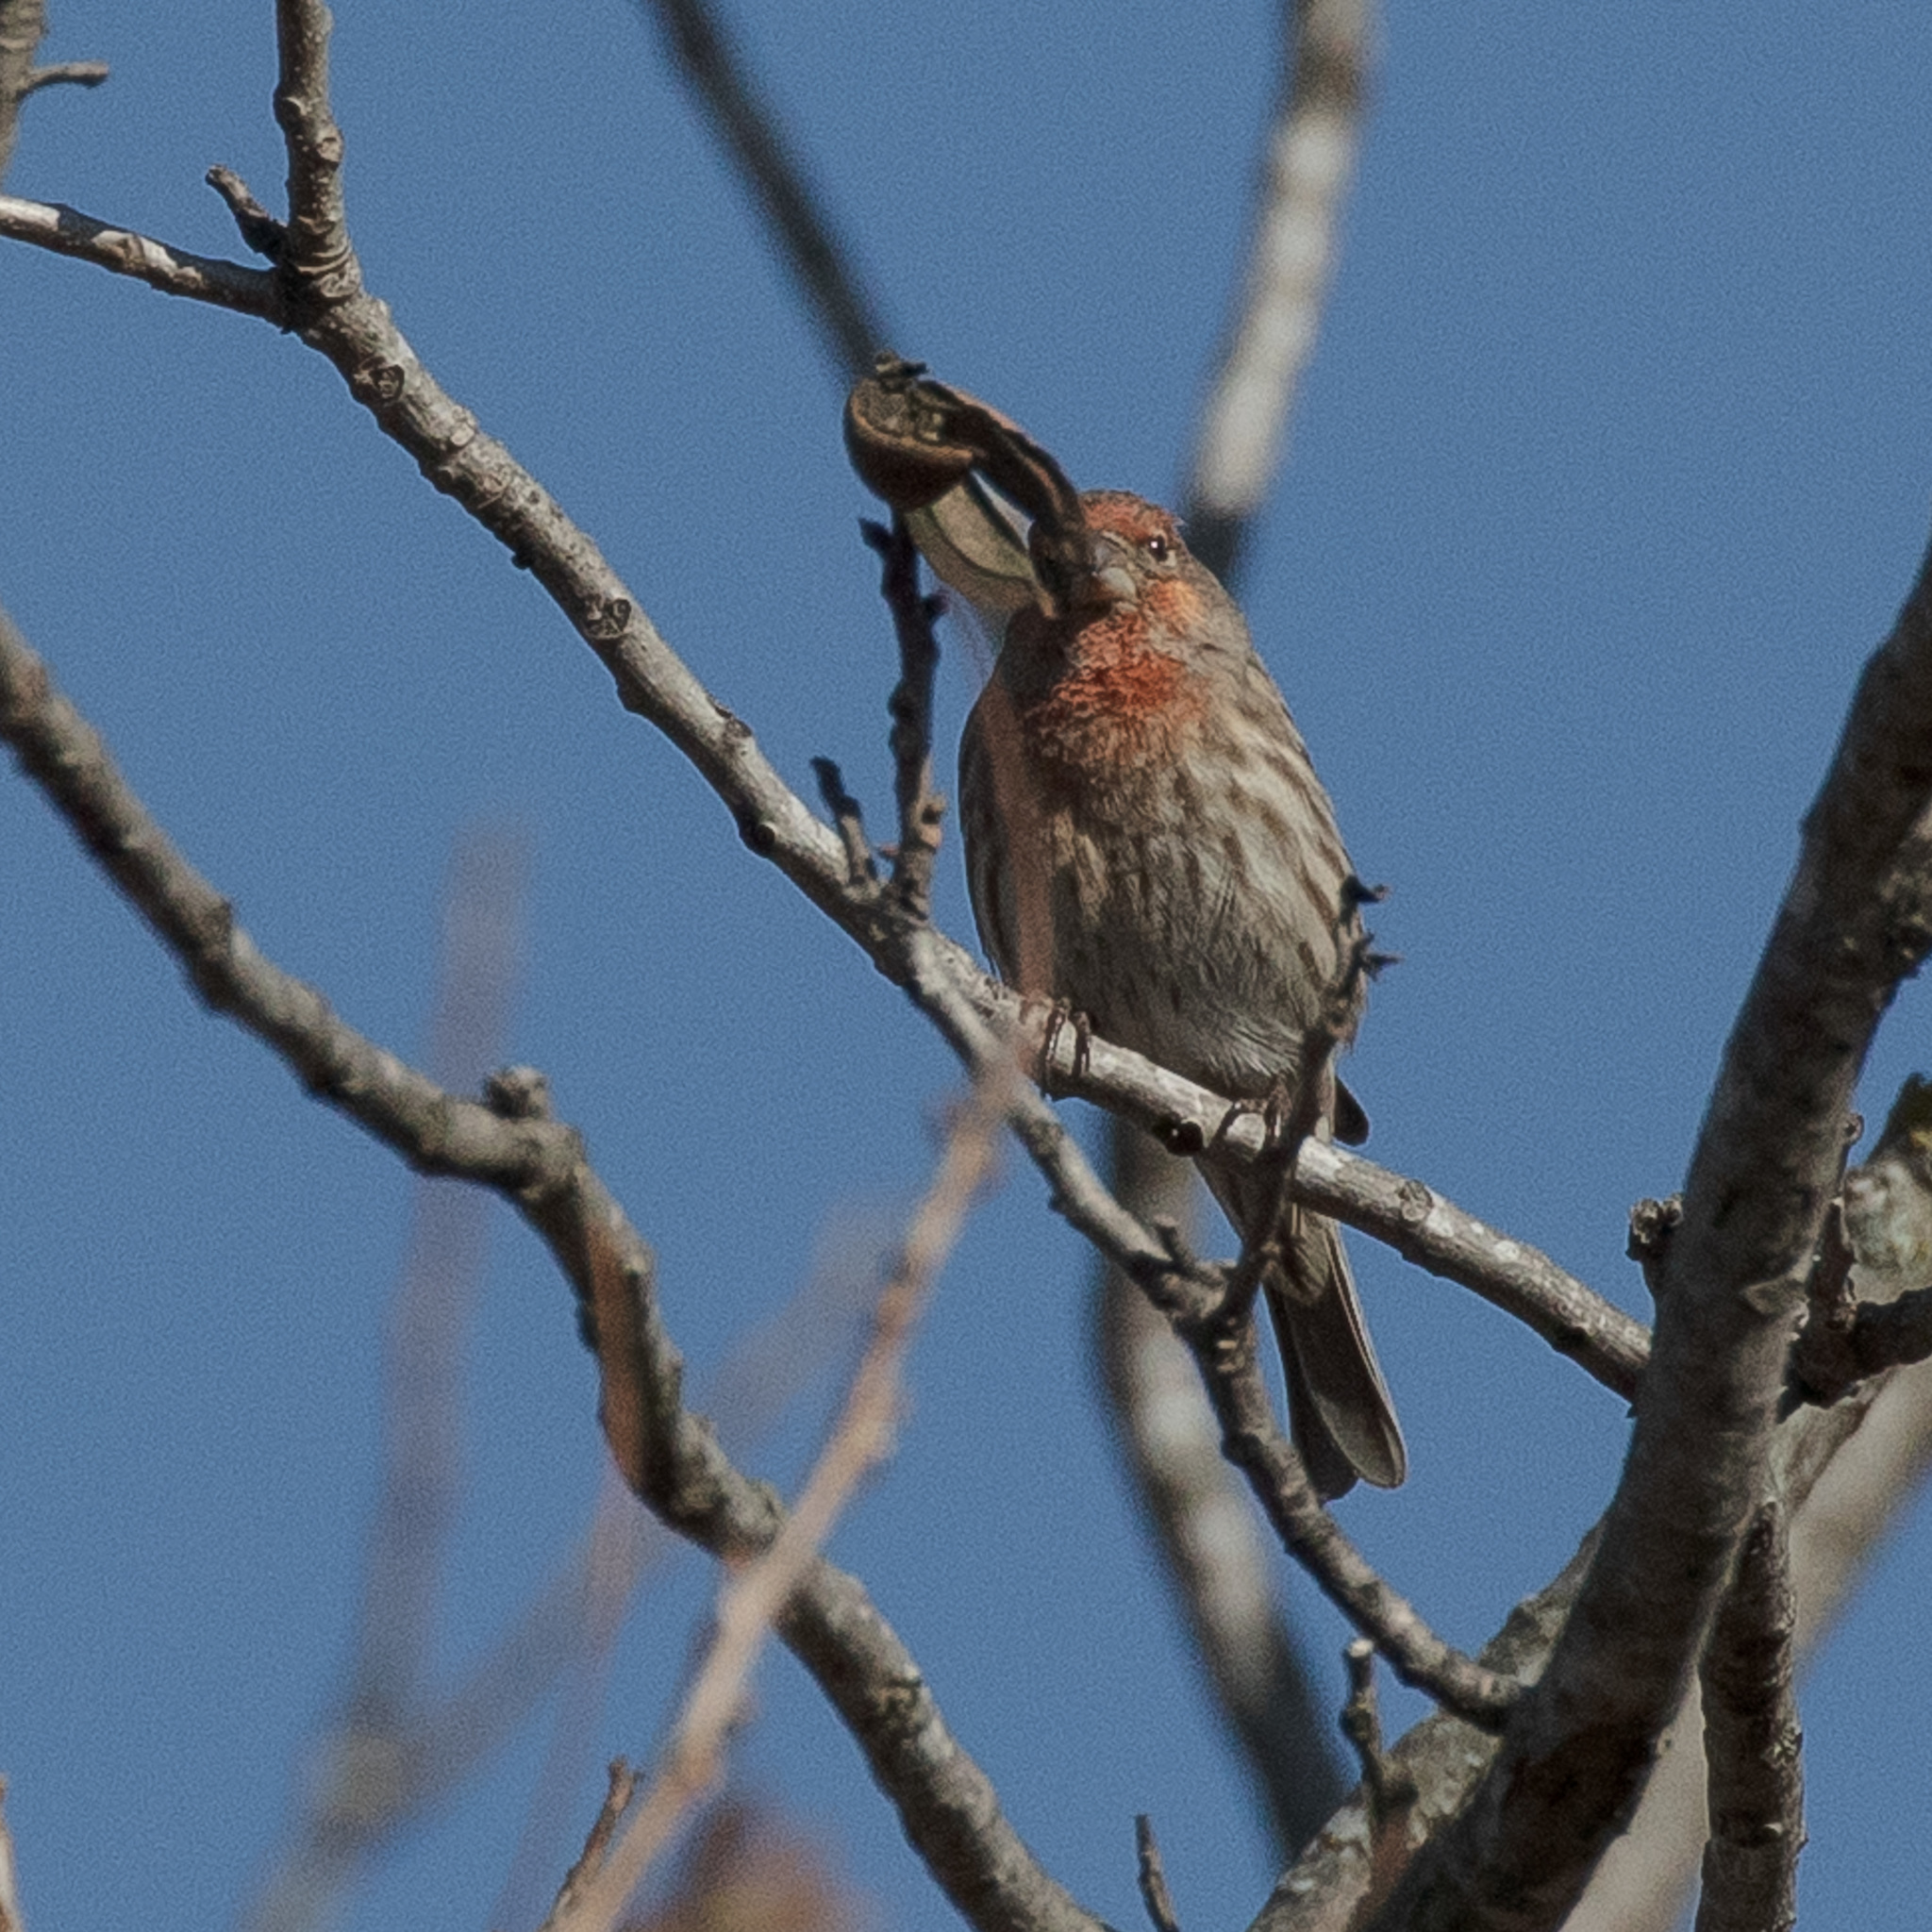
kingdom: Animalia
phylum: Chordata
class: Aves
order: Passeriformes
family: Fringillidae
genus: Haemorhous
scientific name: Haemorhous mexicanus
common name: House finch
